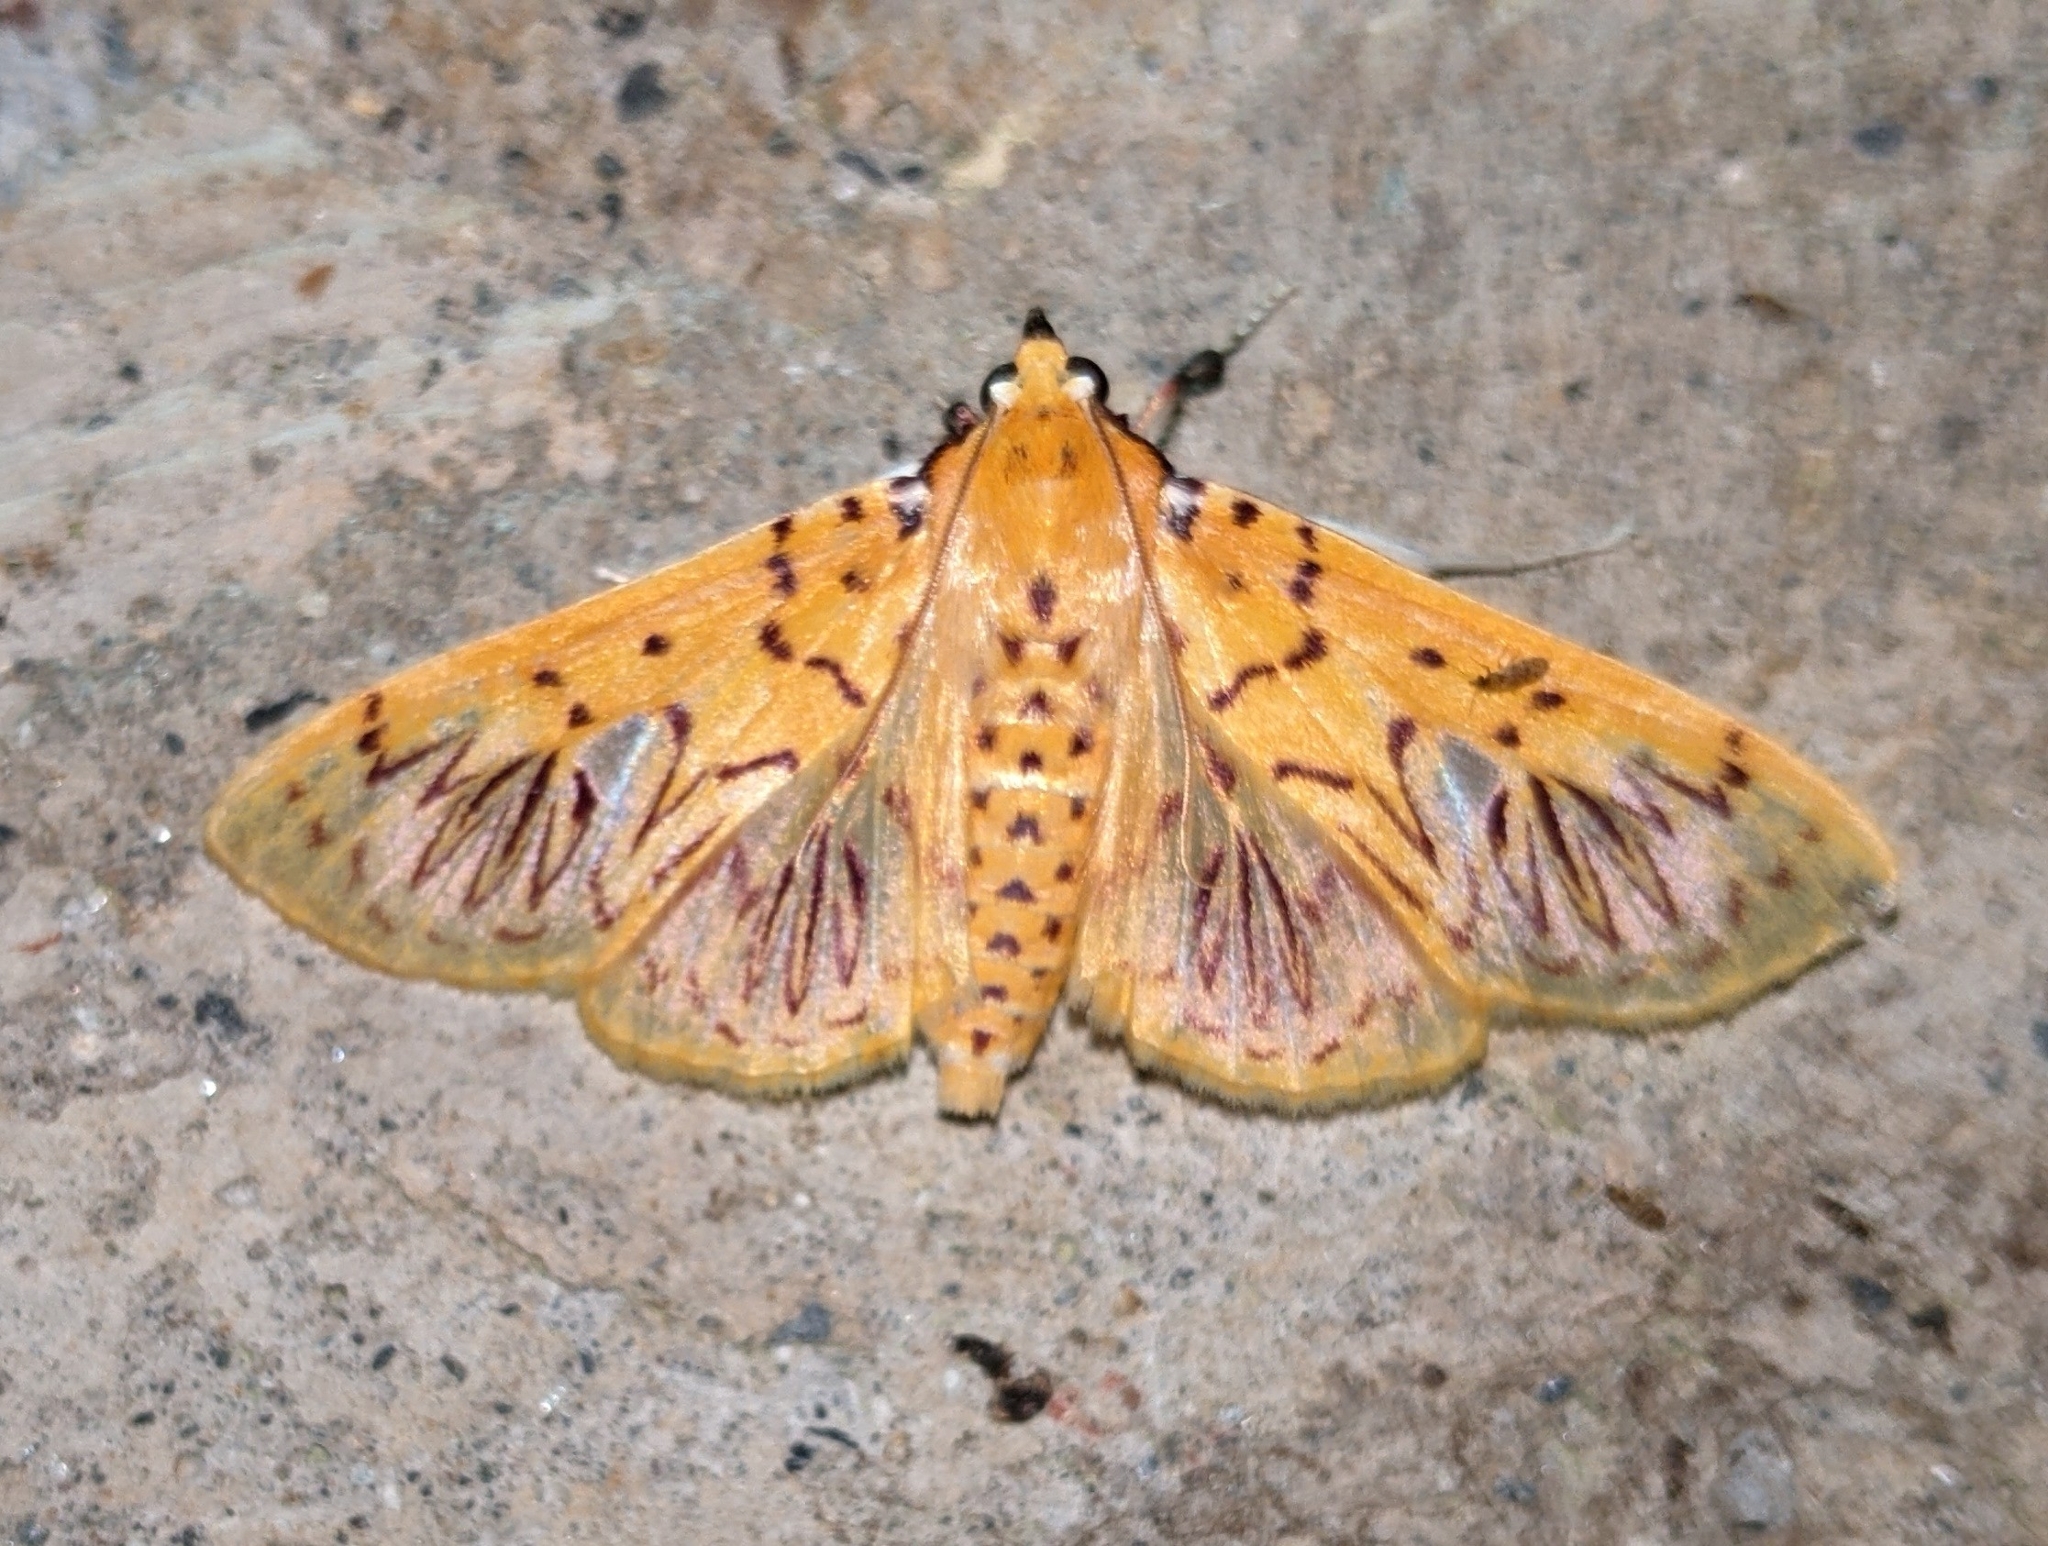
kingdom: Animalia
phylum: Arthropoda
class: Insecta
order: Lepidoptera
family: Crambidae
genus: Polygrammodes
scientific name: Polygrammodes runicalis
